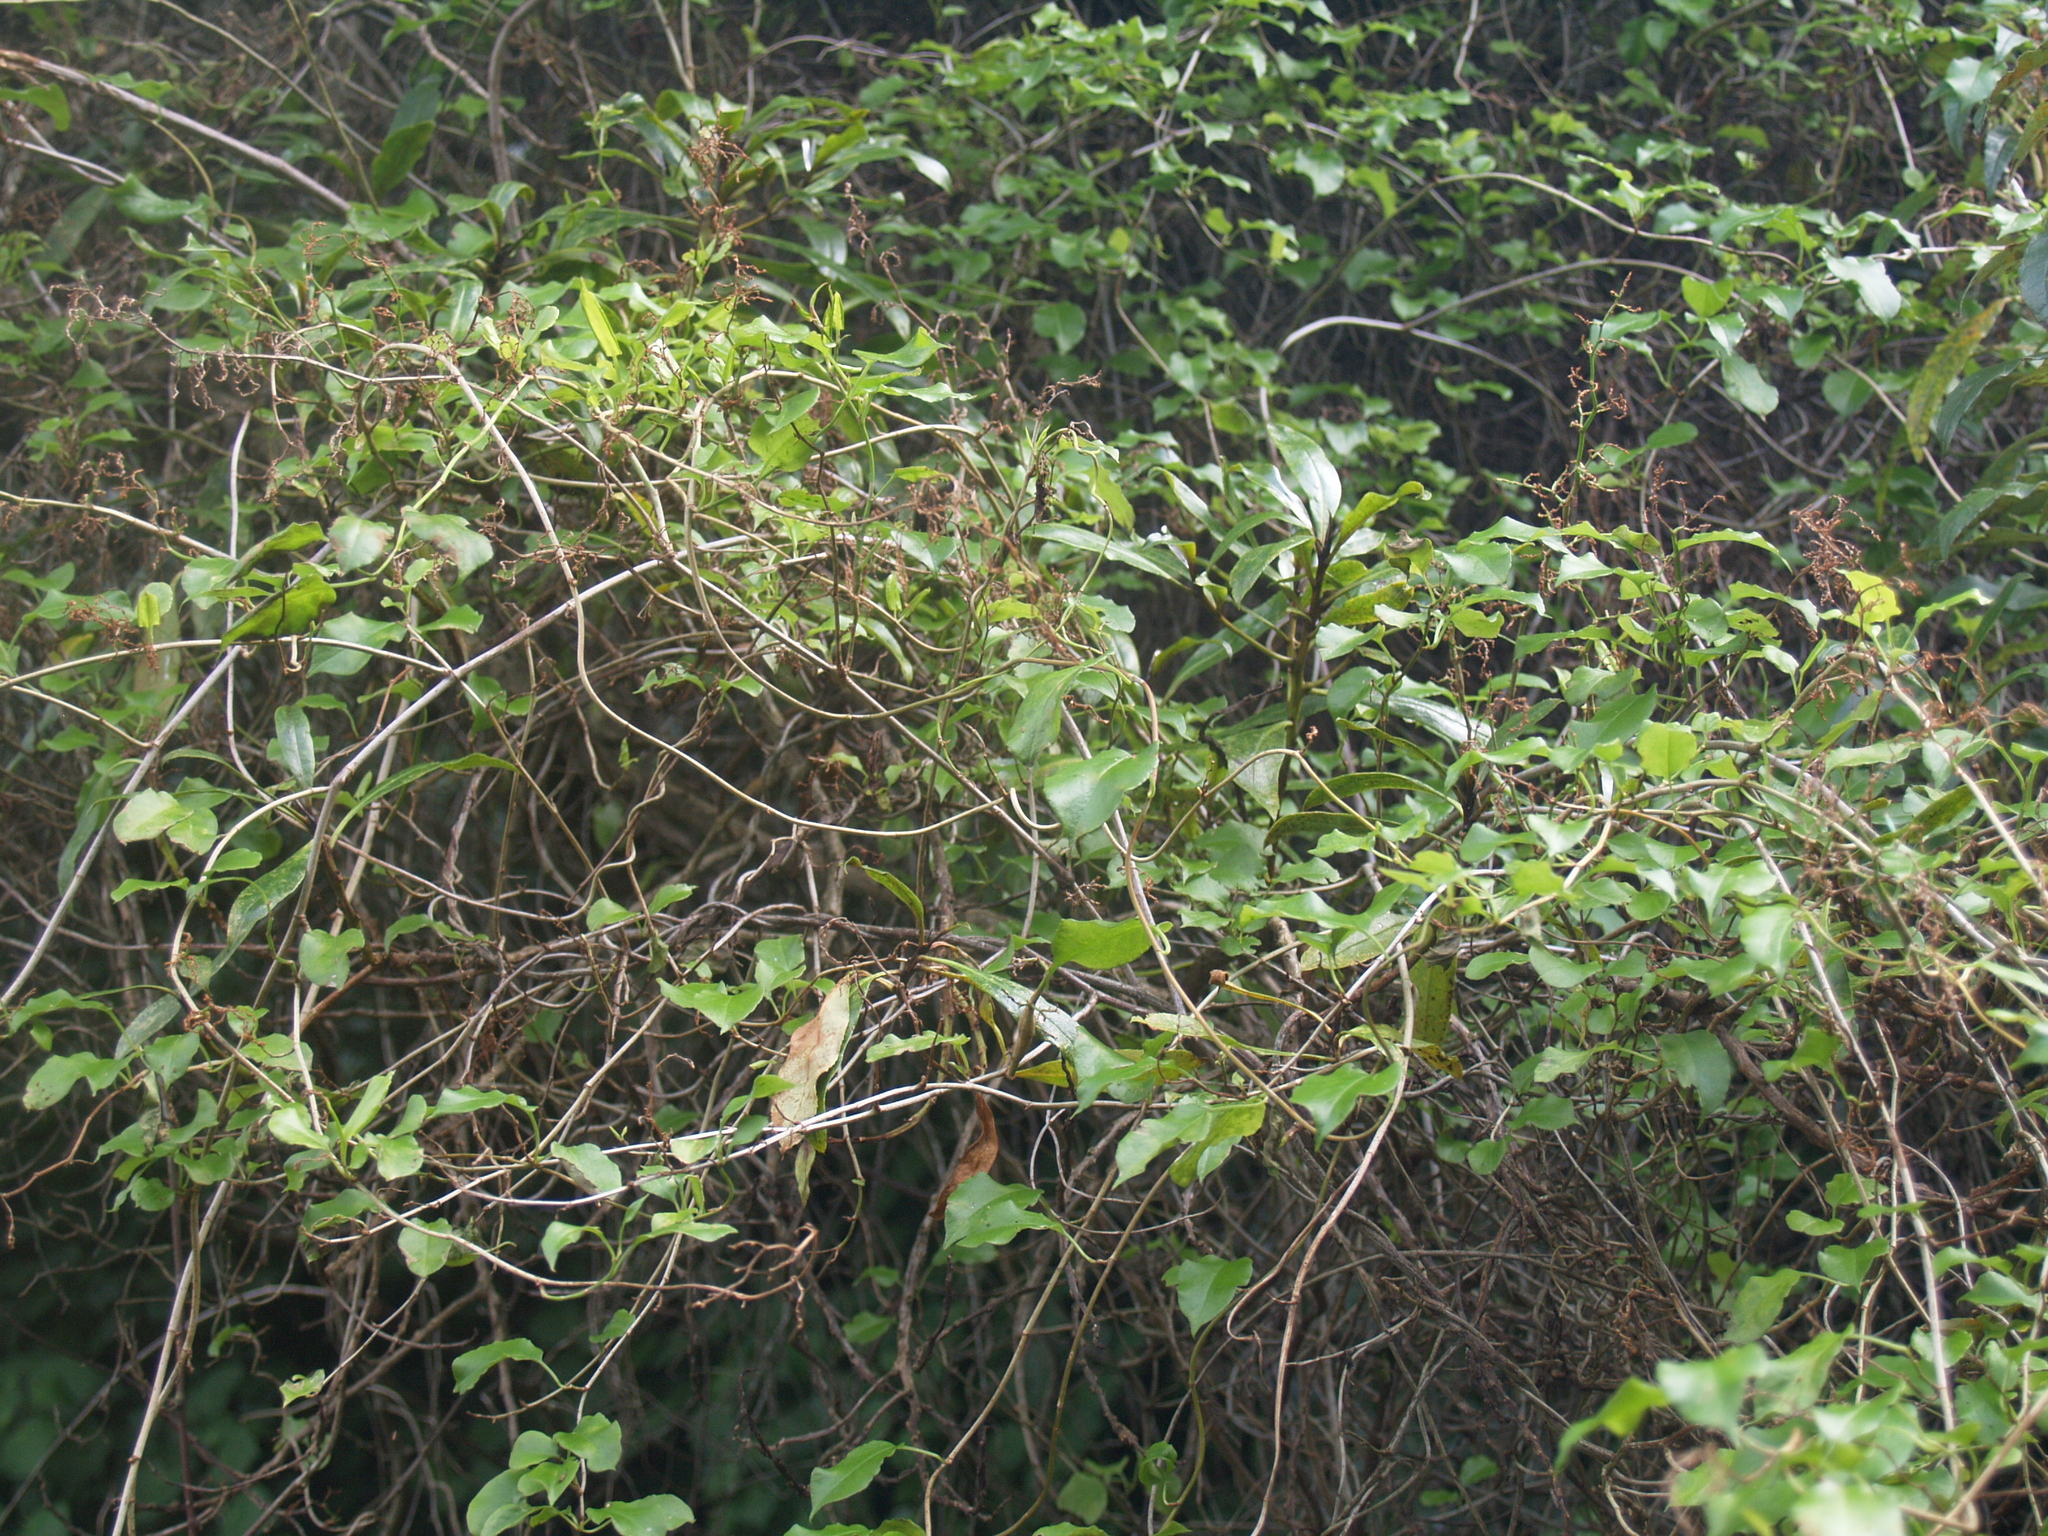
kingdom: Plantae
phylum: Tracheophyta
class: Magnoliopsida
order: Caryophyllales
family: Polygonaceae
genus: Muehlenbeckia
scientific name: Muehlenbeckia australis
